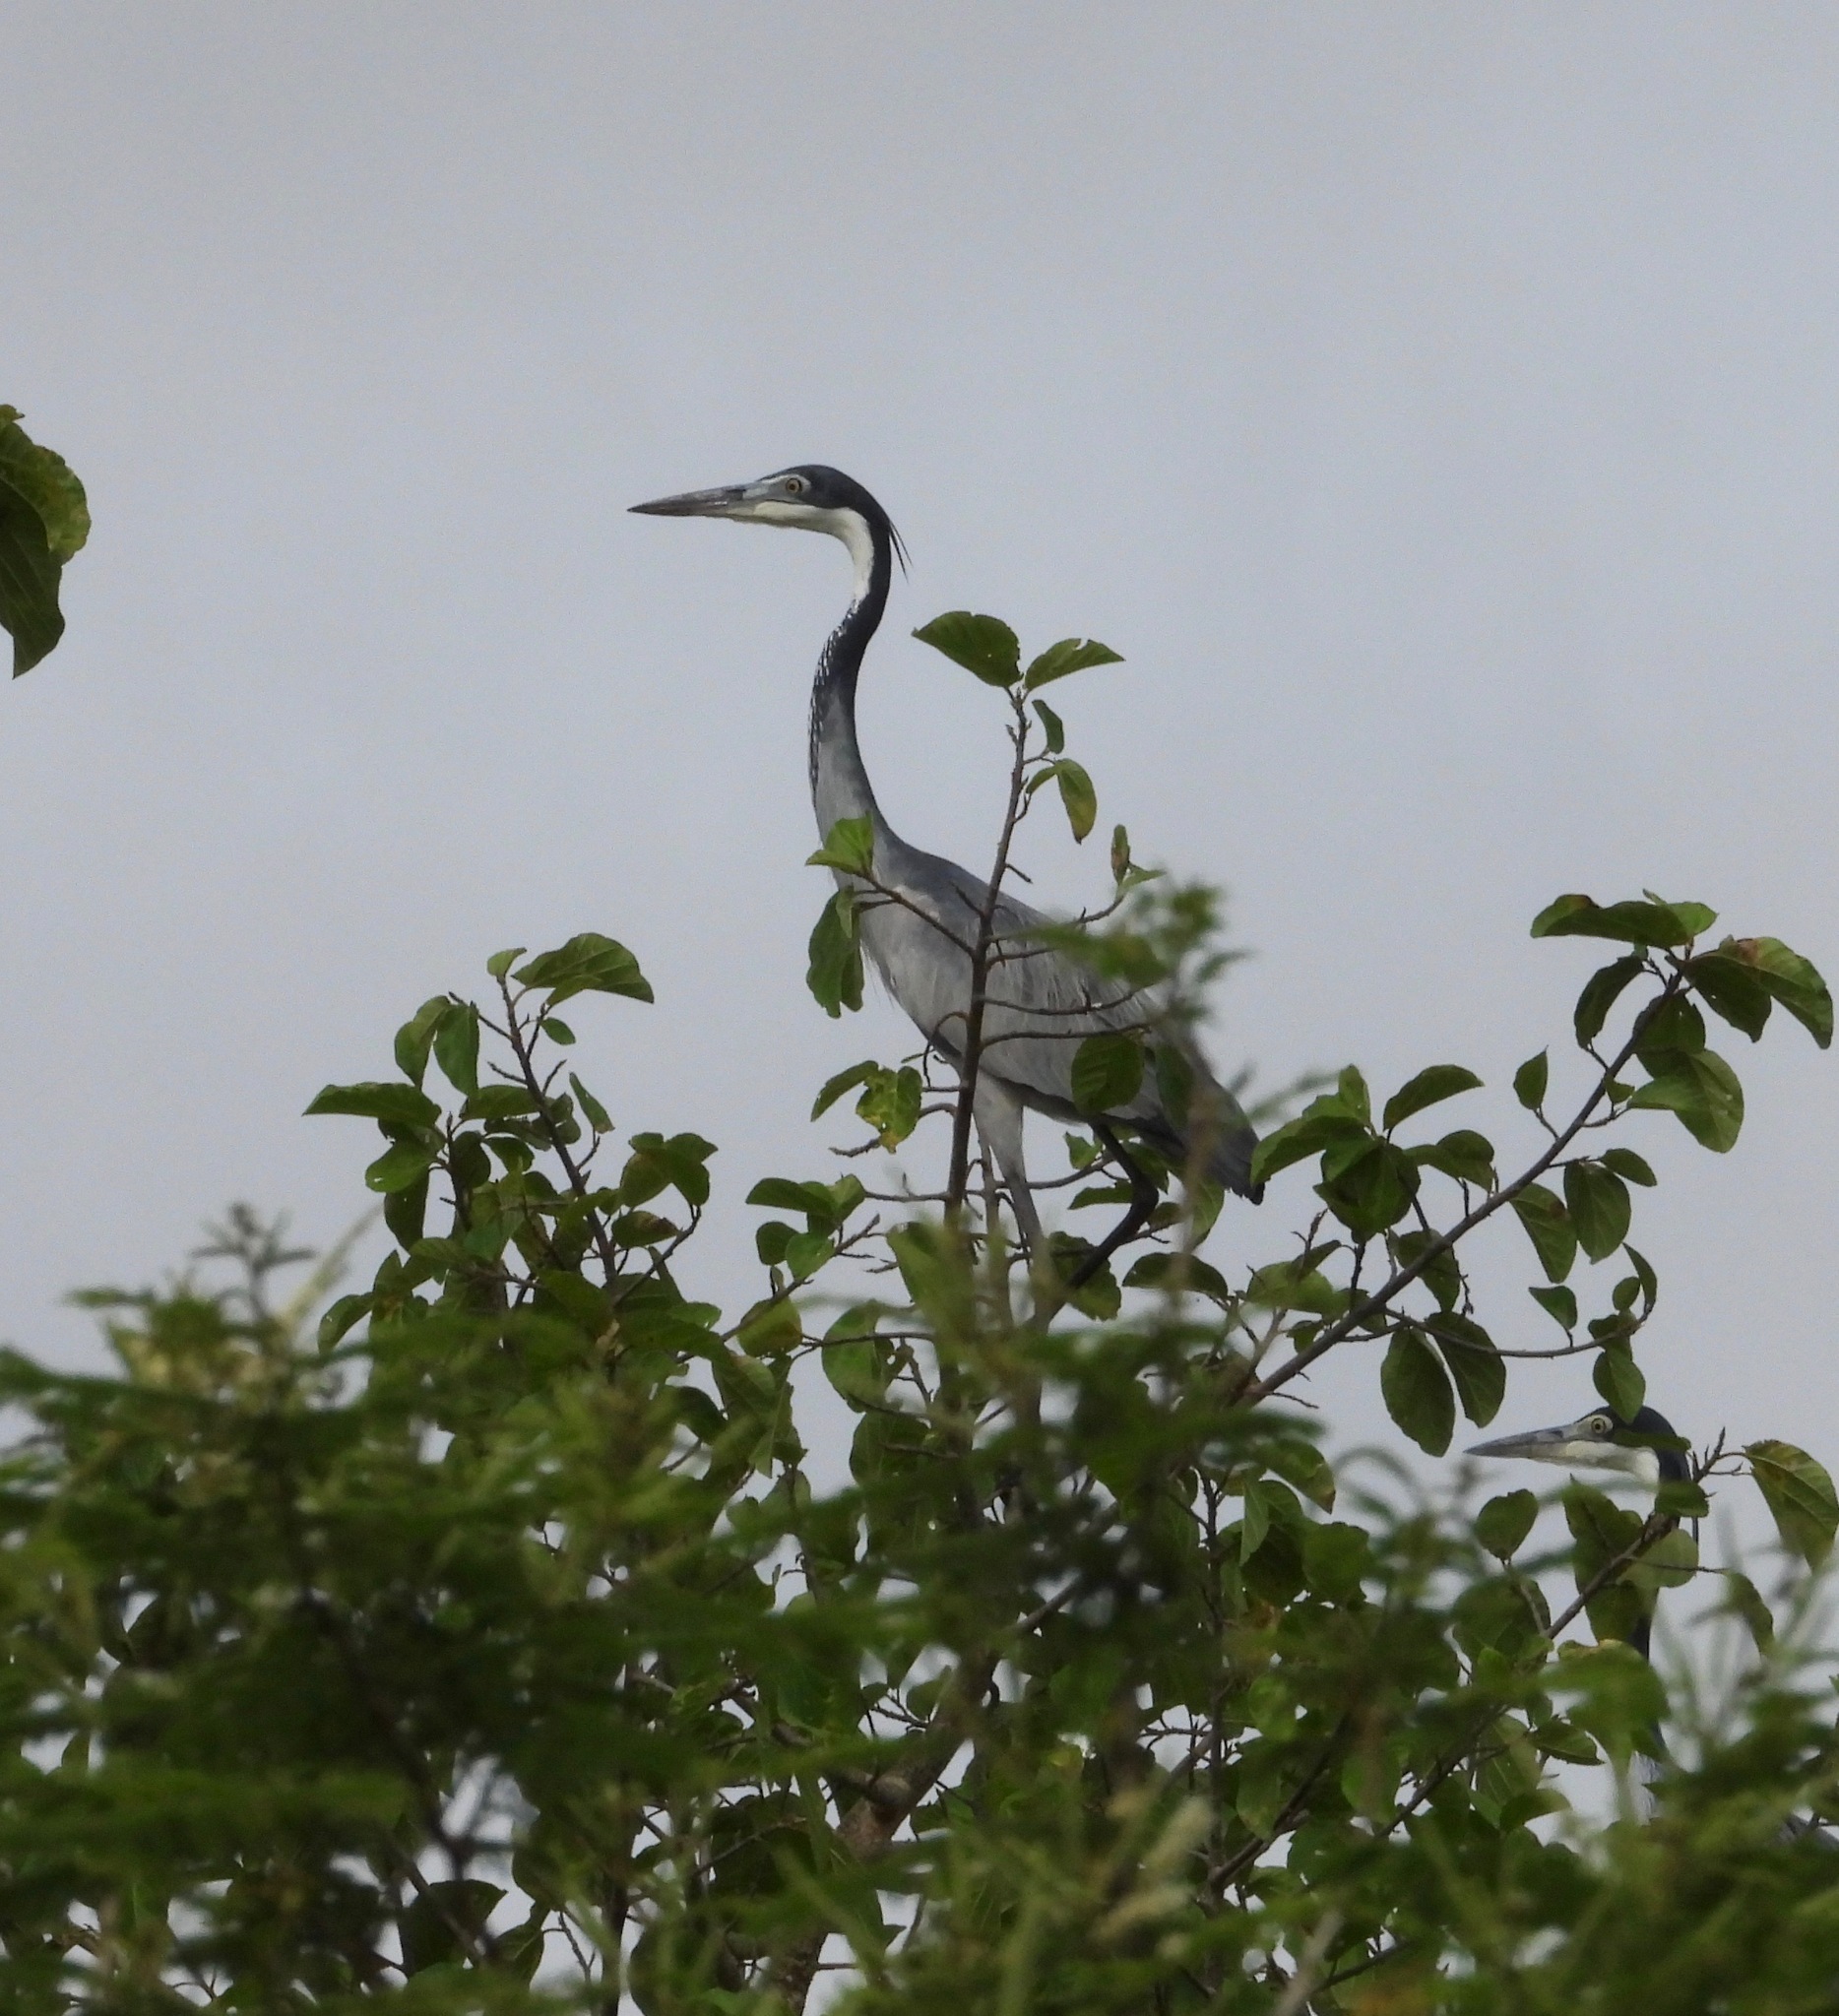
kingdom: Animalia
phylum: Chordata
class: Aves
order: Pelecaniformes
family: Ardeidae
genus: Ardea
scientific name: Ardea melanocephala
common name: Black-headed heron
